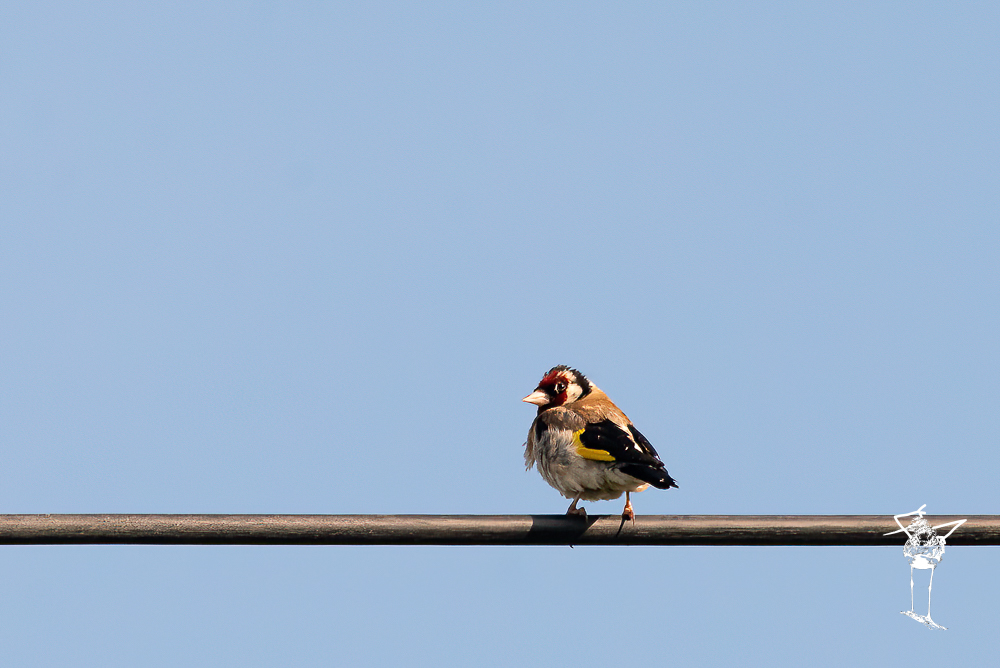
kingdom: Animalia
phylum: Chordata
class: Aves
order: Passeriformes
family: Fringillidae
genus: Carduelis
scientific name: Carduelis carduelis
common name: European goldfinch
